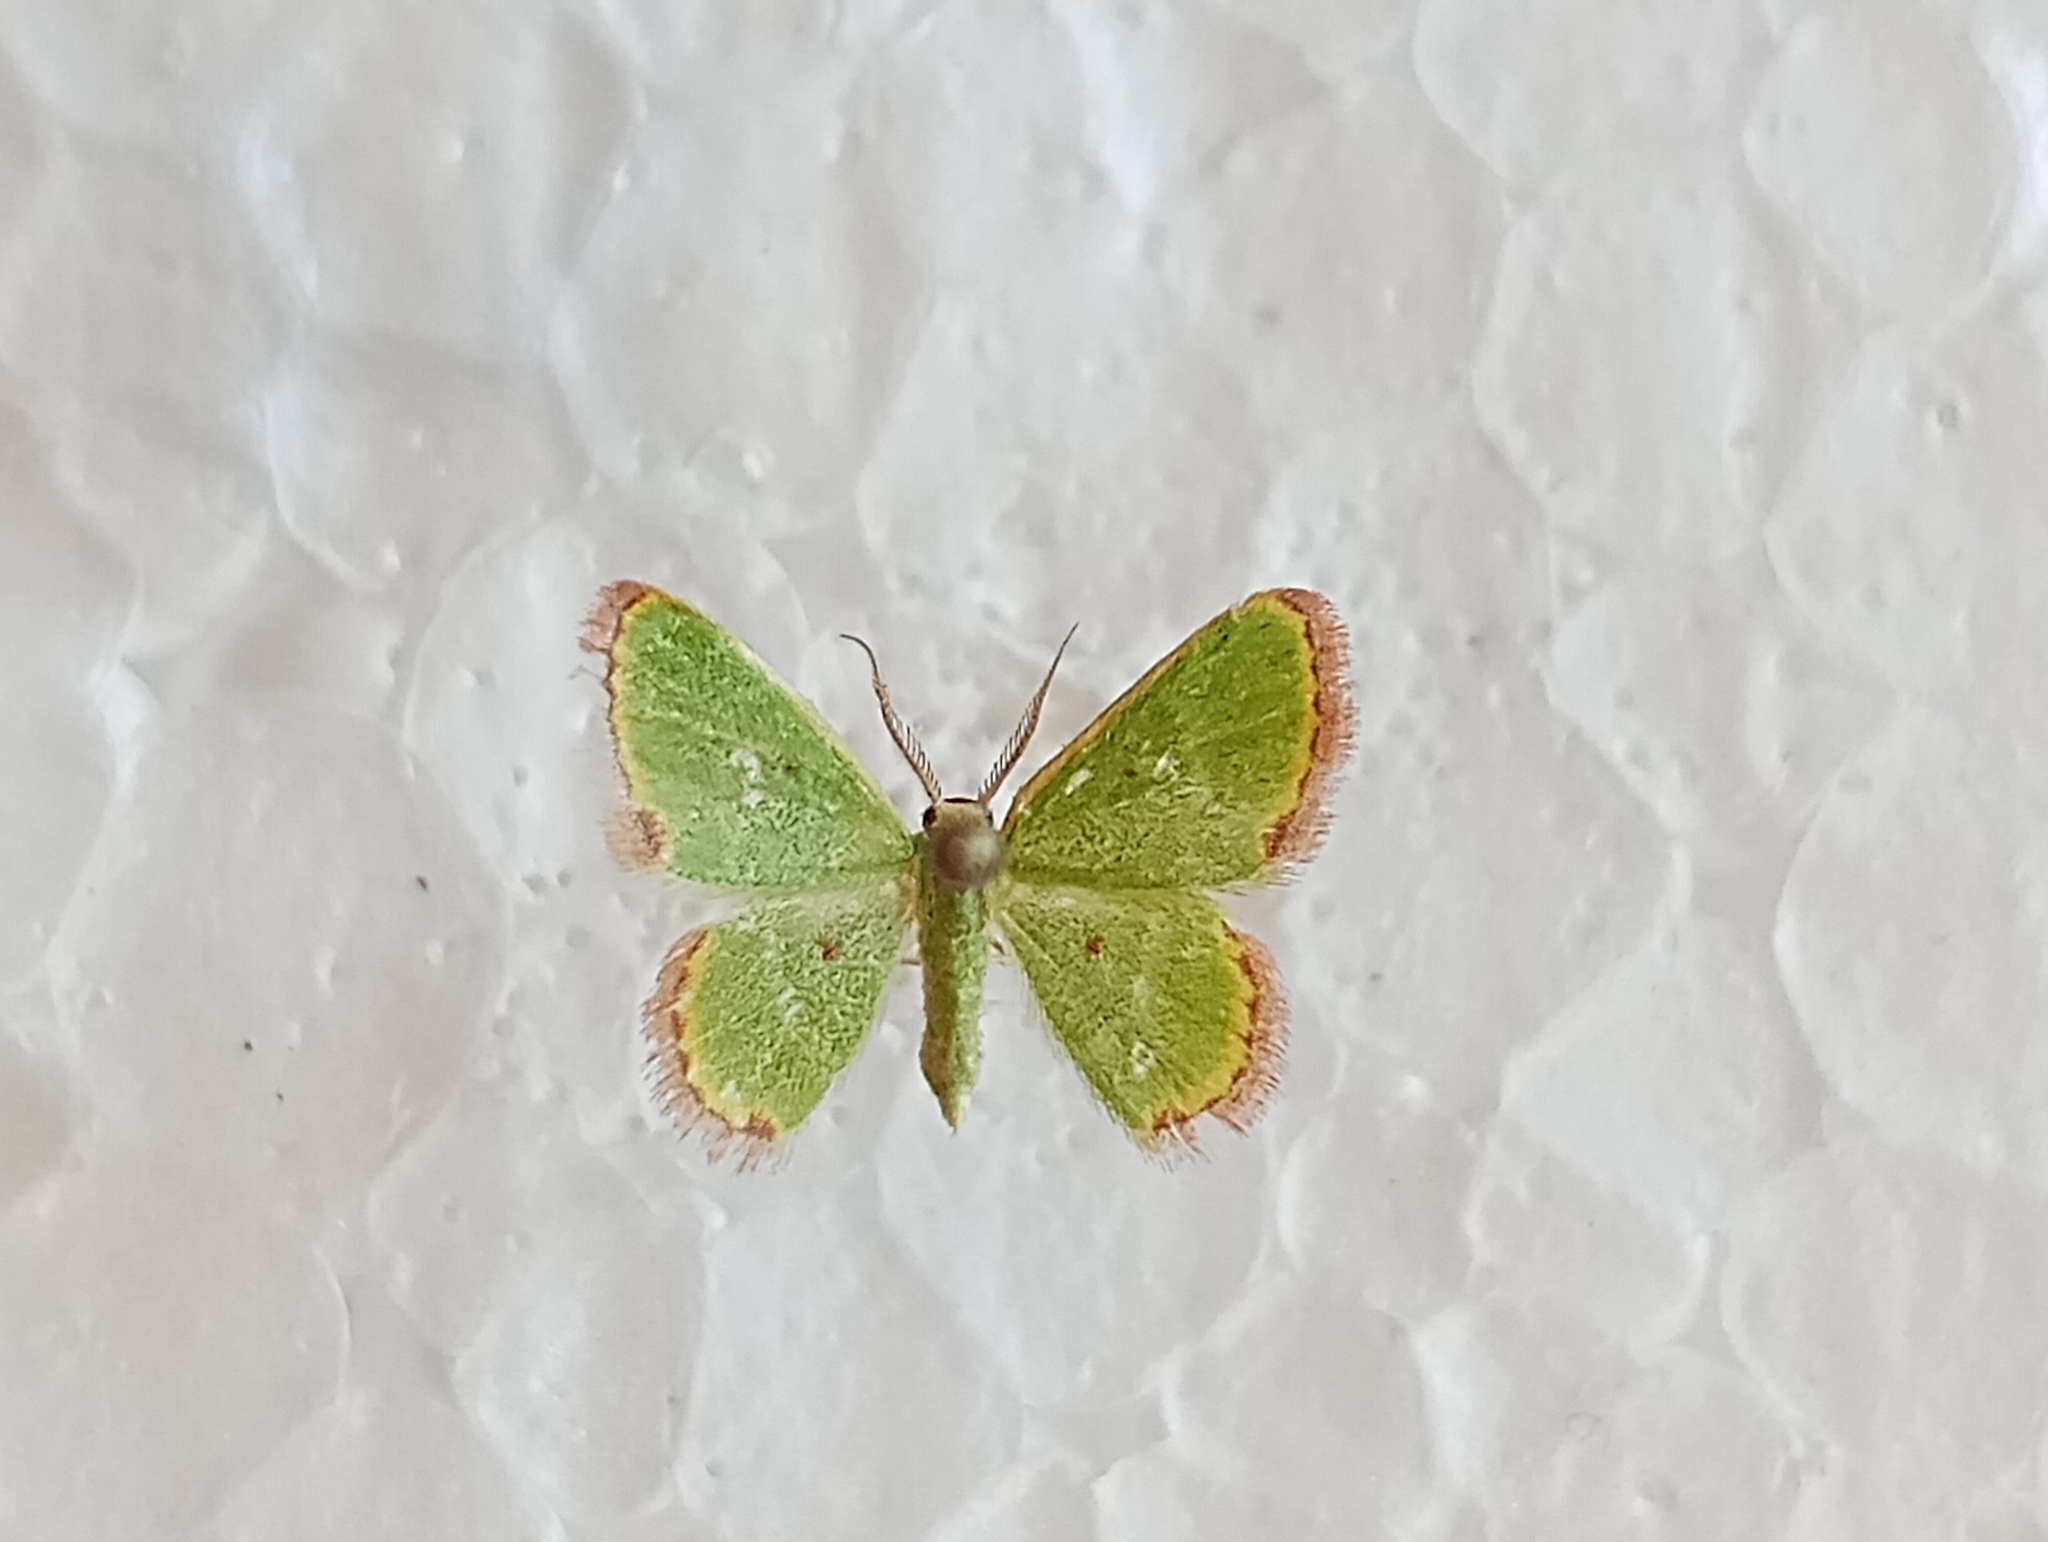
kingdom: Animalia
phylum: Arthropoda
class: Insecta
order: Lepidoptera
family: Geometridae
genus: Eucrostes
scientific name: Eucrostes indigenata
